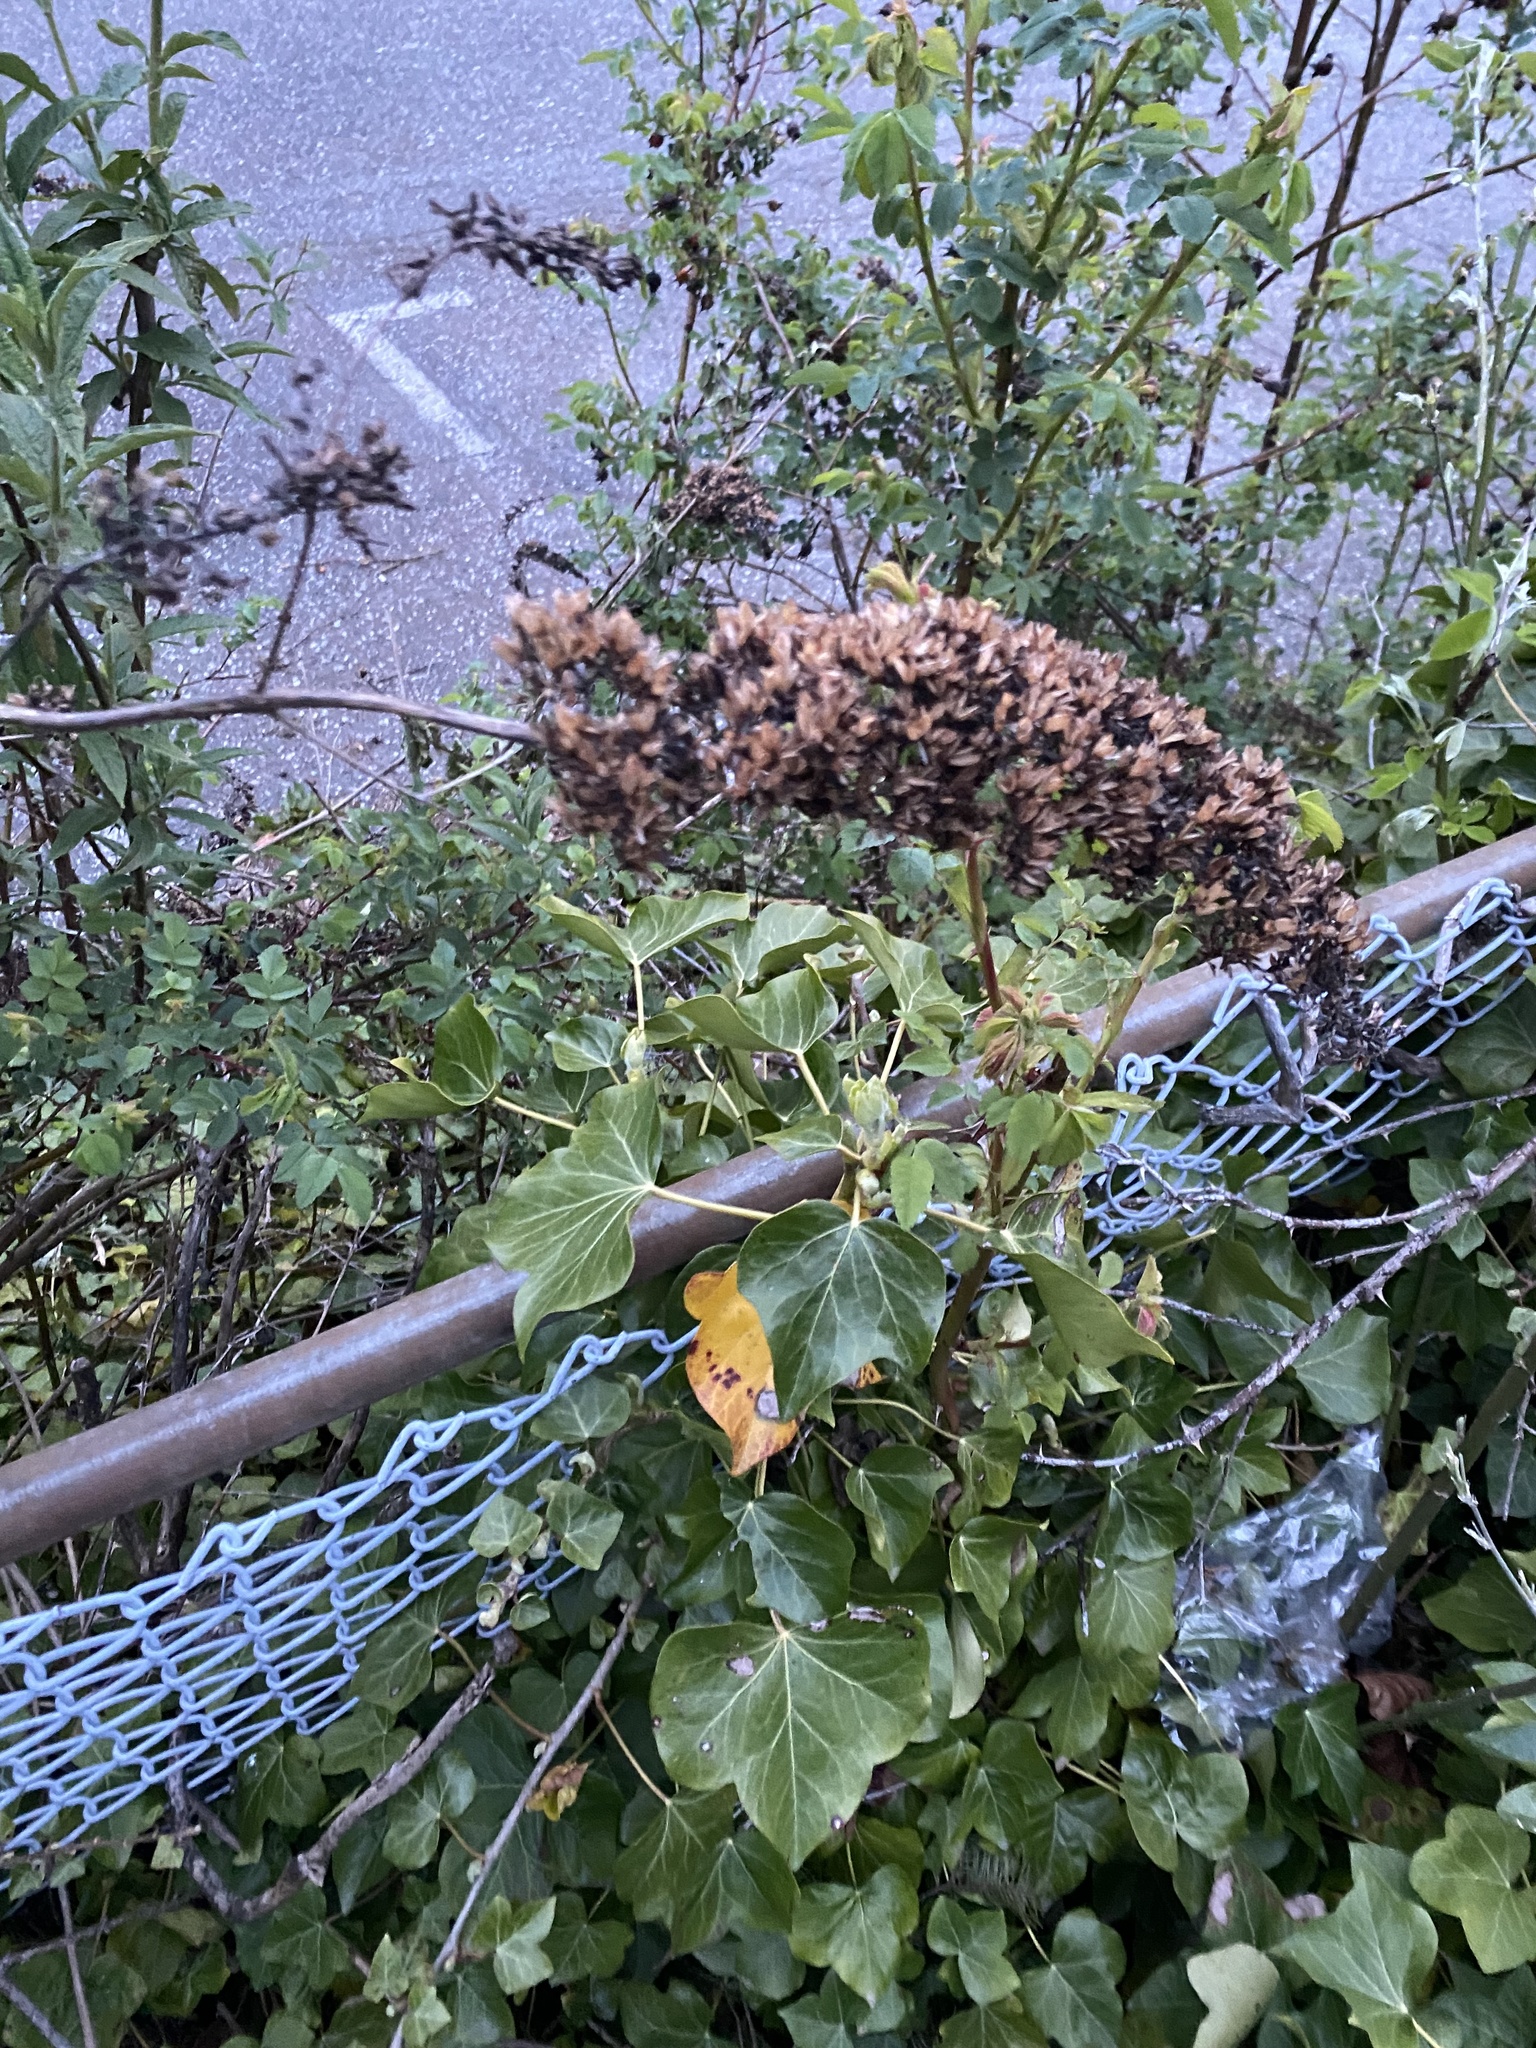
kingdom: Plantae
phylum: Tracheophyta
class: Magnoliopsida
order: Lamiales
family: Scrophulariaceae
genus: Buddleja
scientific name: Buddleja davidii
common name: Butterfly-bush
